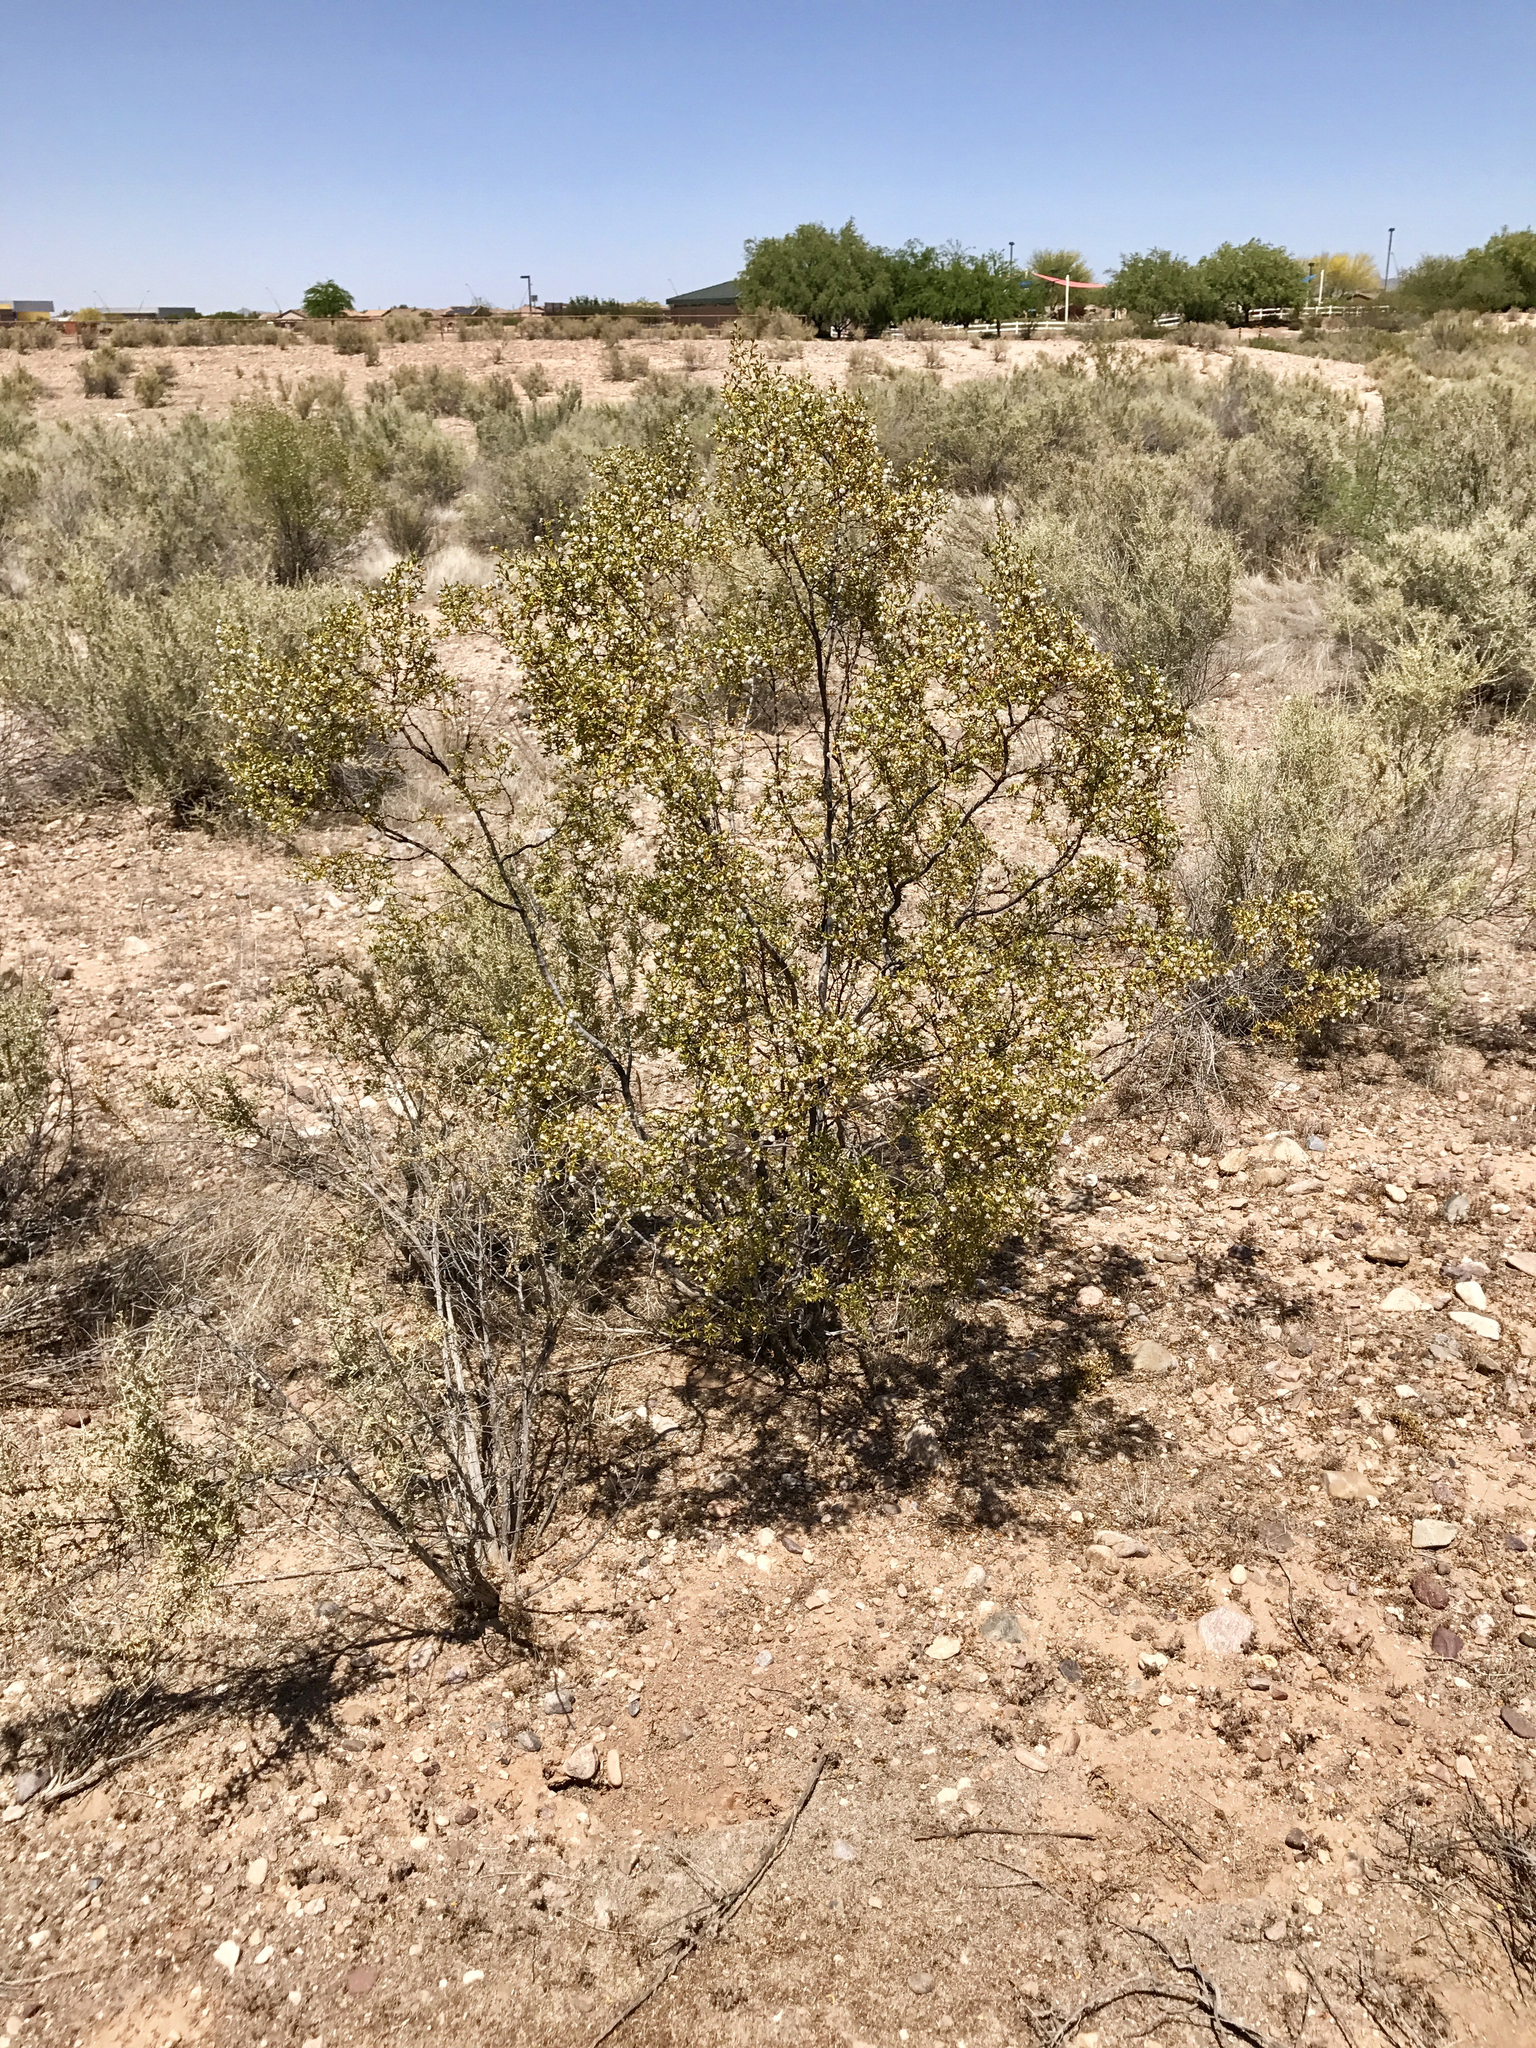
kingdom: Plantae
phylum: Tracheophyta
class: Magnoliopsida
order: Zygophyllales
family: Zygophyllaceae
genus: Larrea
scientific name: Larrea tridentata
